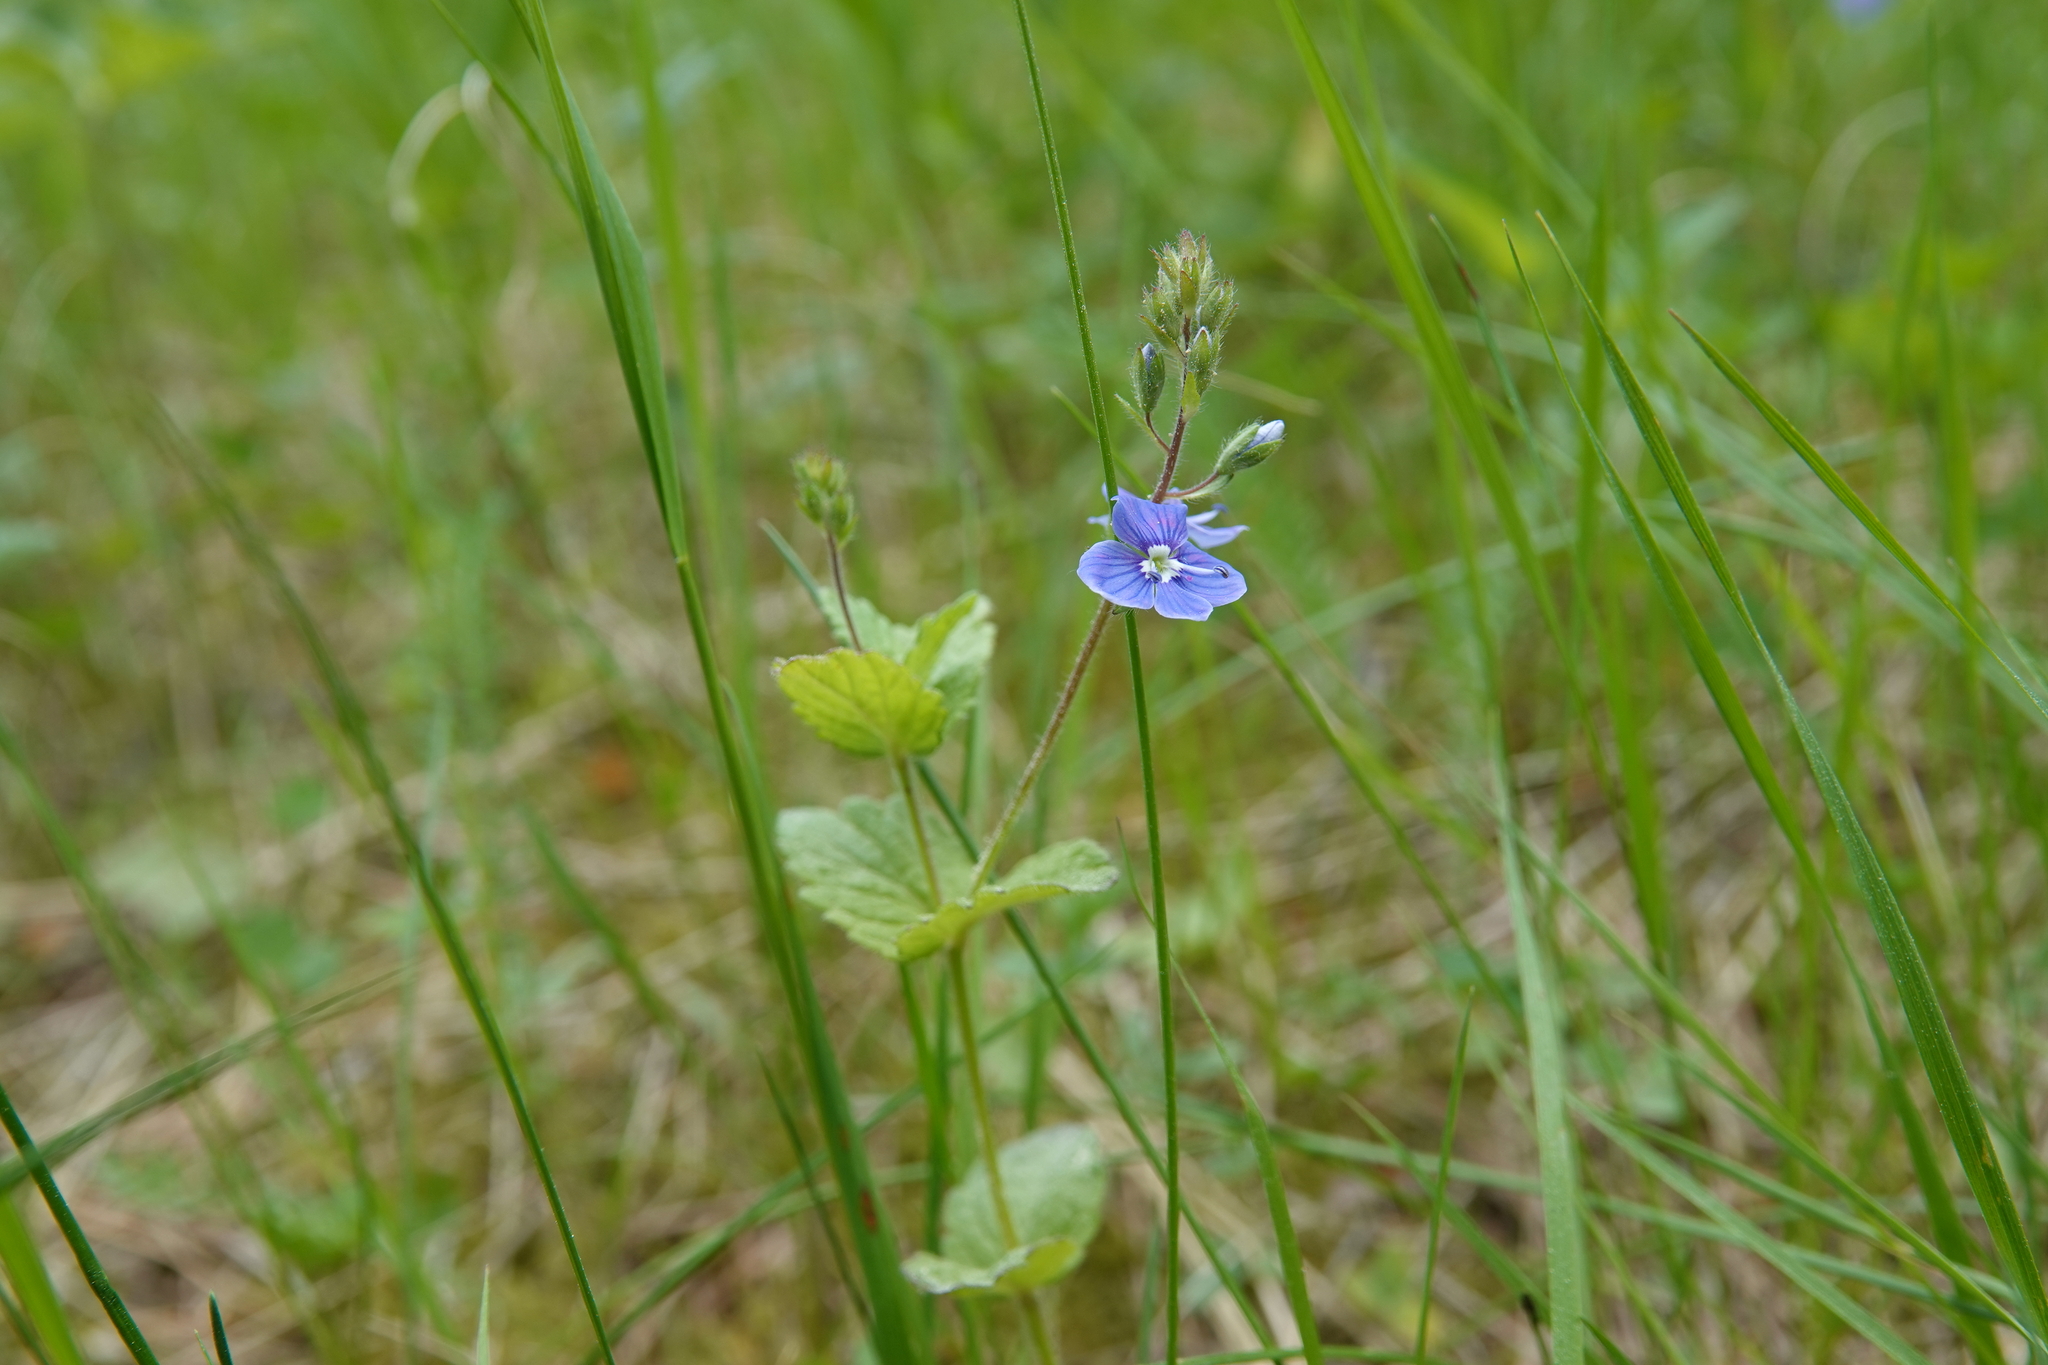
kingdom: Plantae
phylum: Tracheophyta
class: Magnoliopsida
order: Lamiales
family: Plantaginaceae
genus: Veronica
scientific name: Veronica chamaedrys
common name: Germander speedwell
